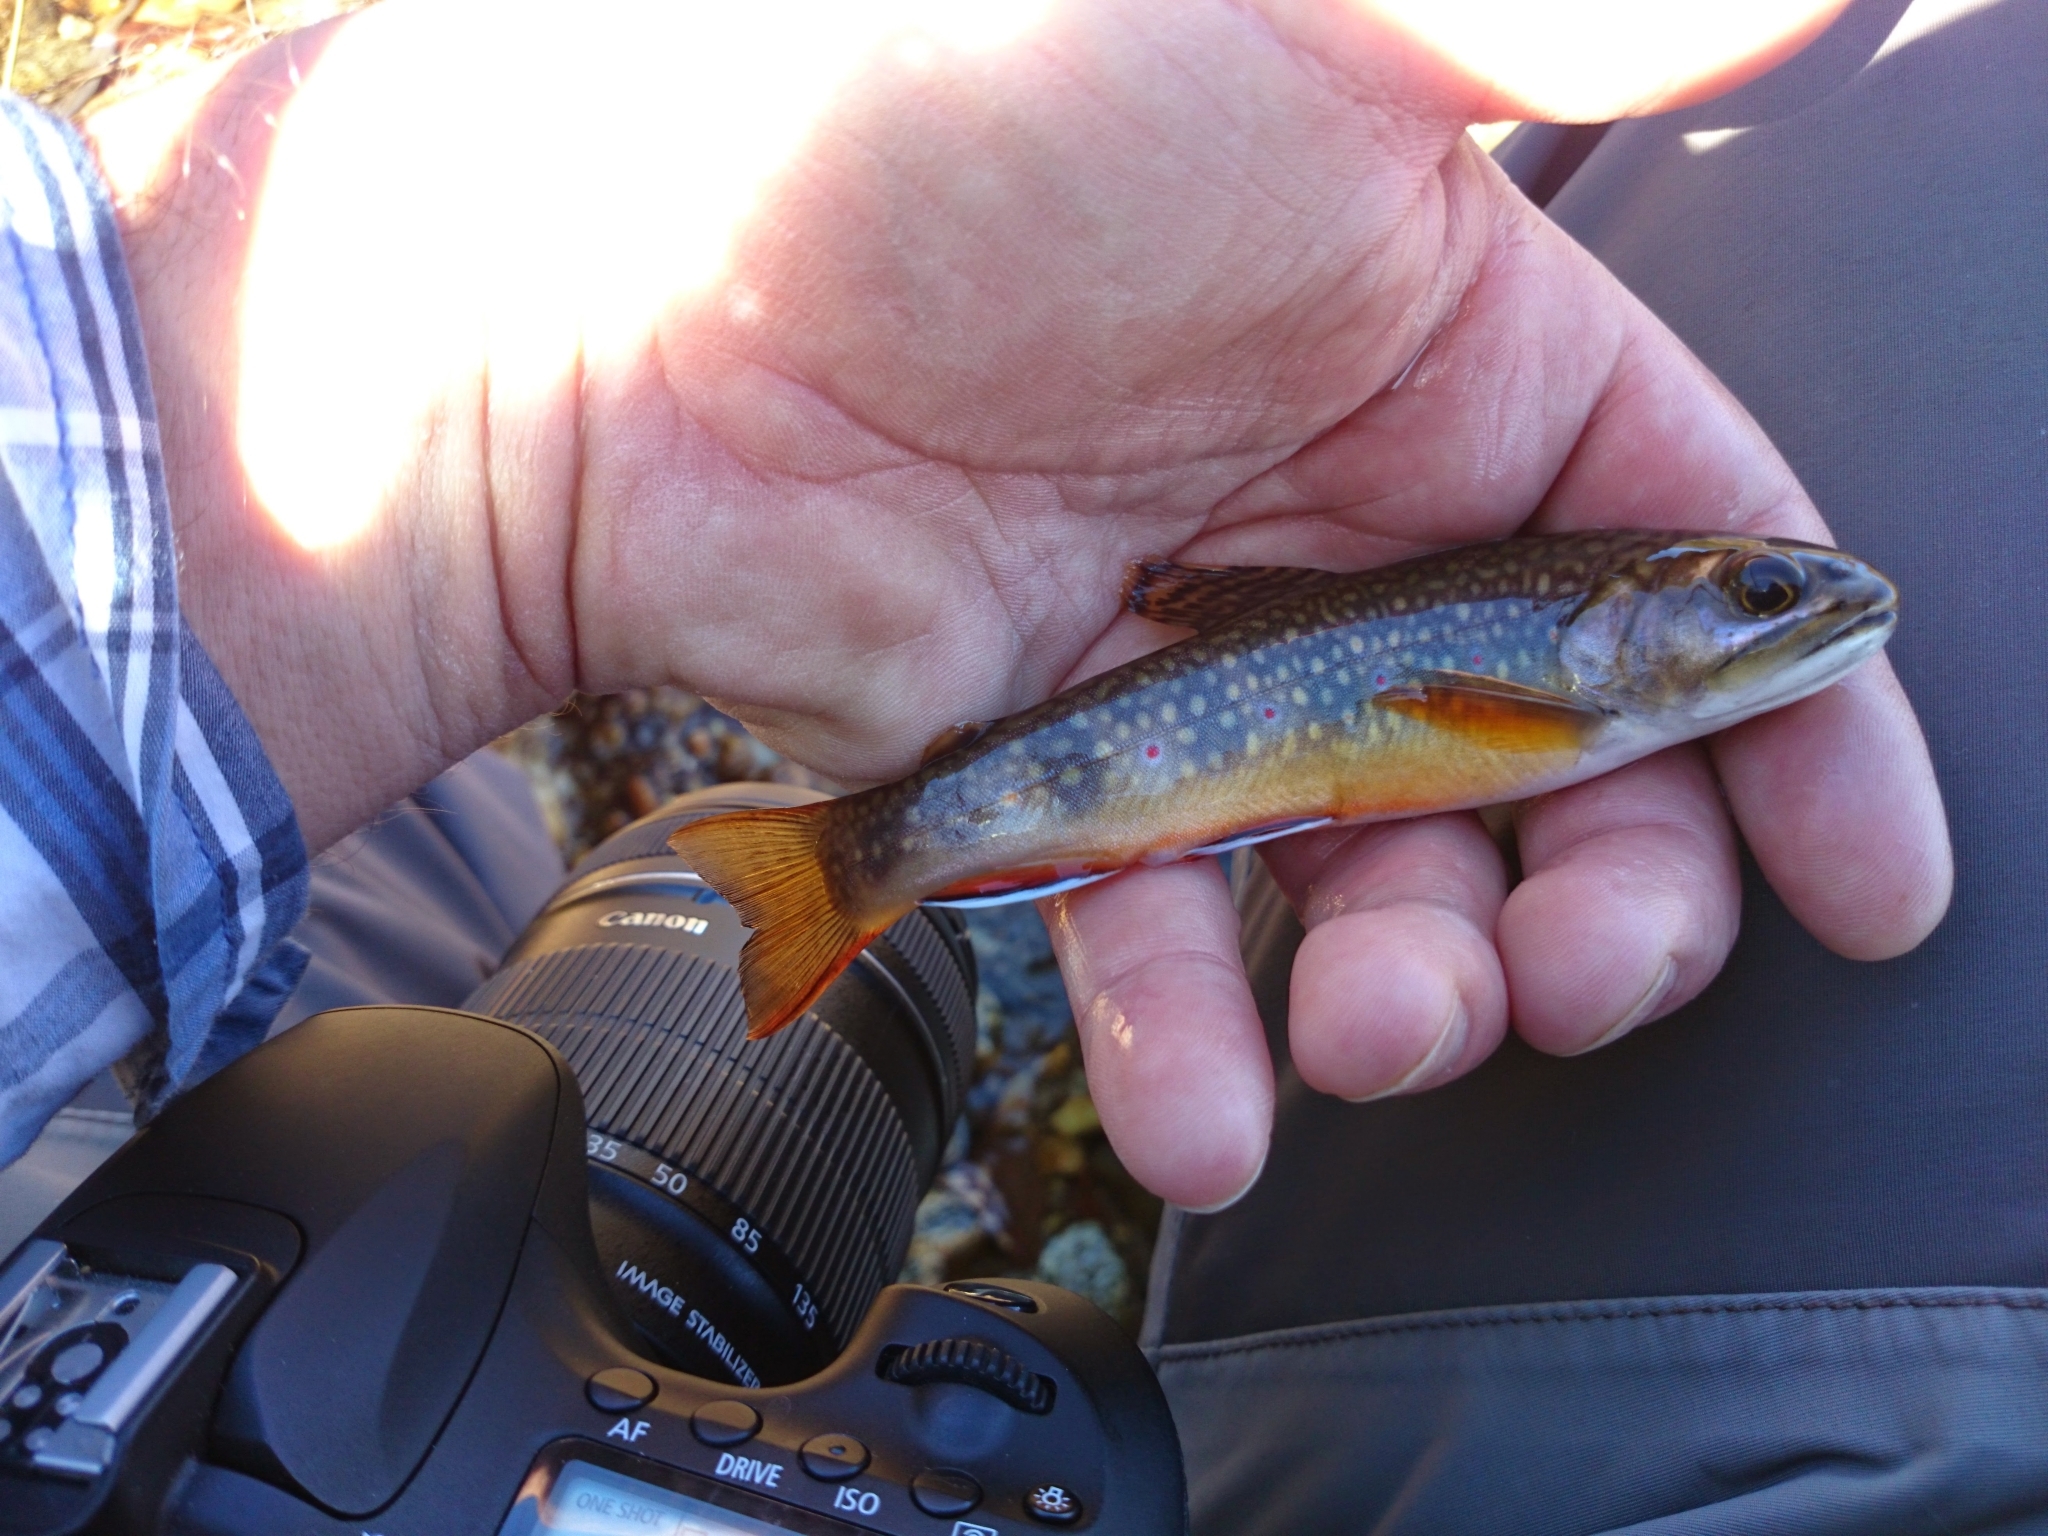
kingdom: Animalia
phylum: Chordata
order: Salmoniformes
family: Salmonidae
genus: Salvelinus
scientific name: Salvelinus fontinalis
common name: Brook trout
